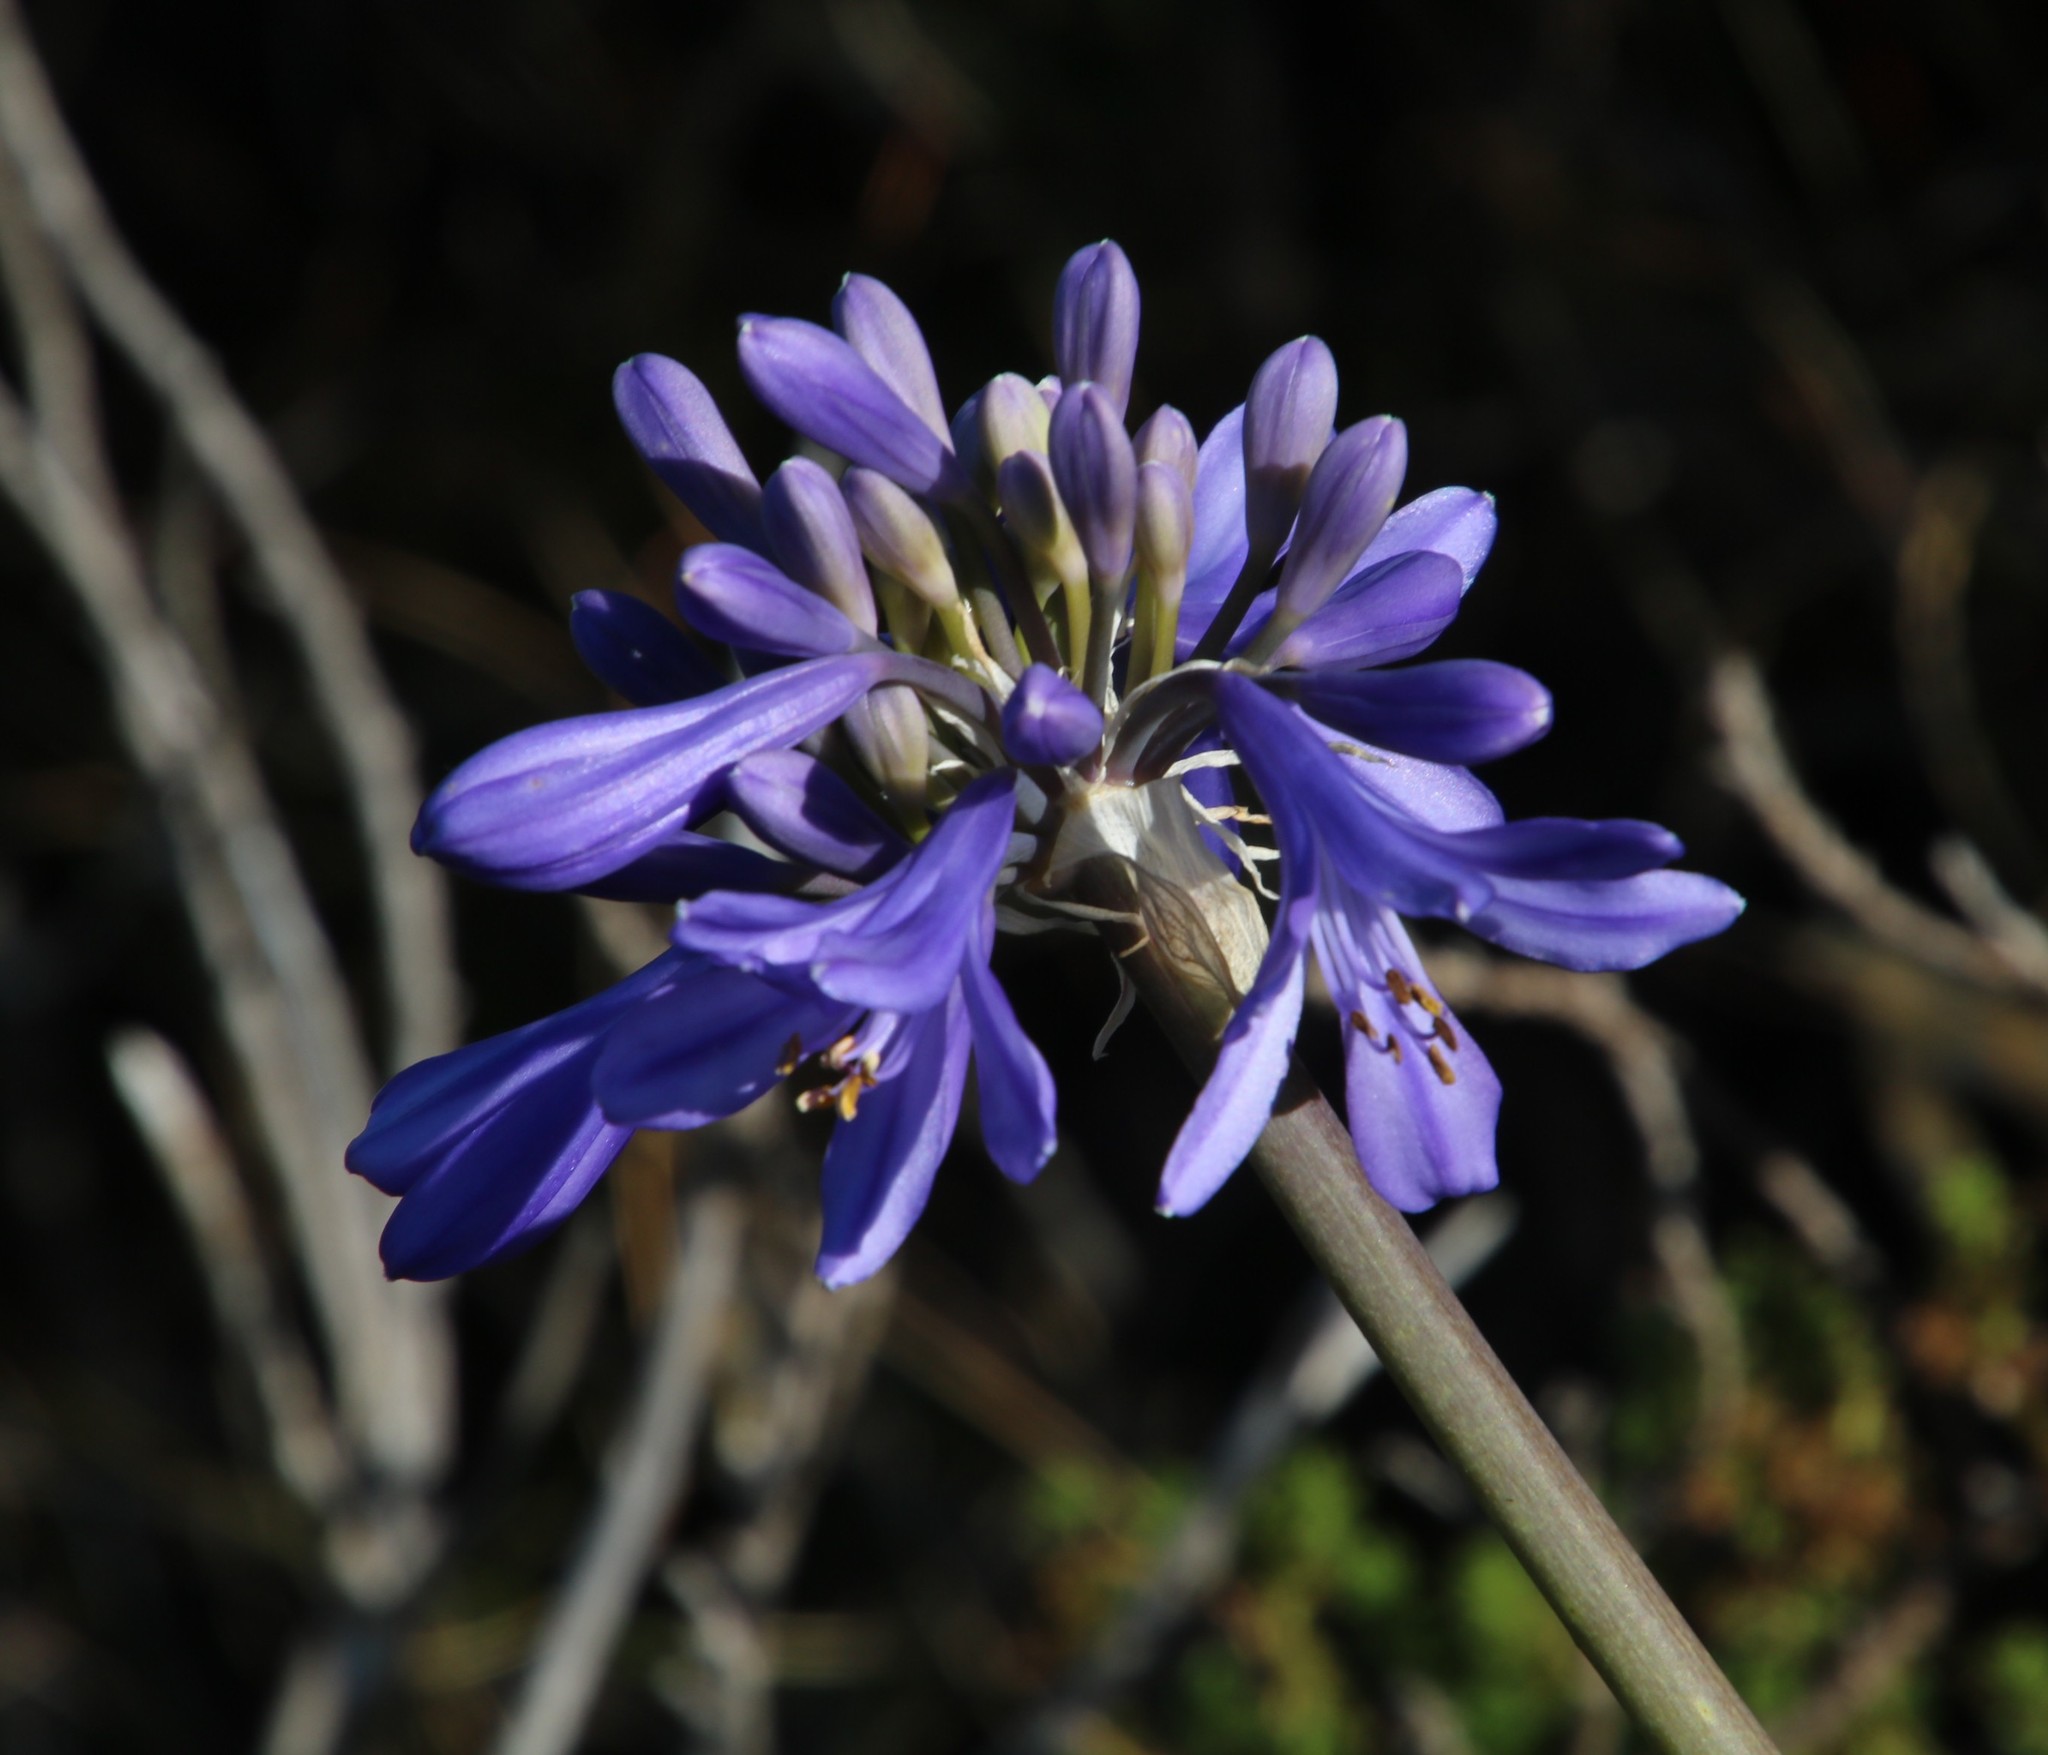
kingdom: Plantae
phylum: Tracheophyta
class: Liliopsida
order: Asparagales
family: Amaryllidaceae
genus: Agapanthus
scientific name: Agapanthus africanus
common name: Lily-of-the-nile
